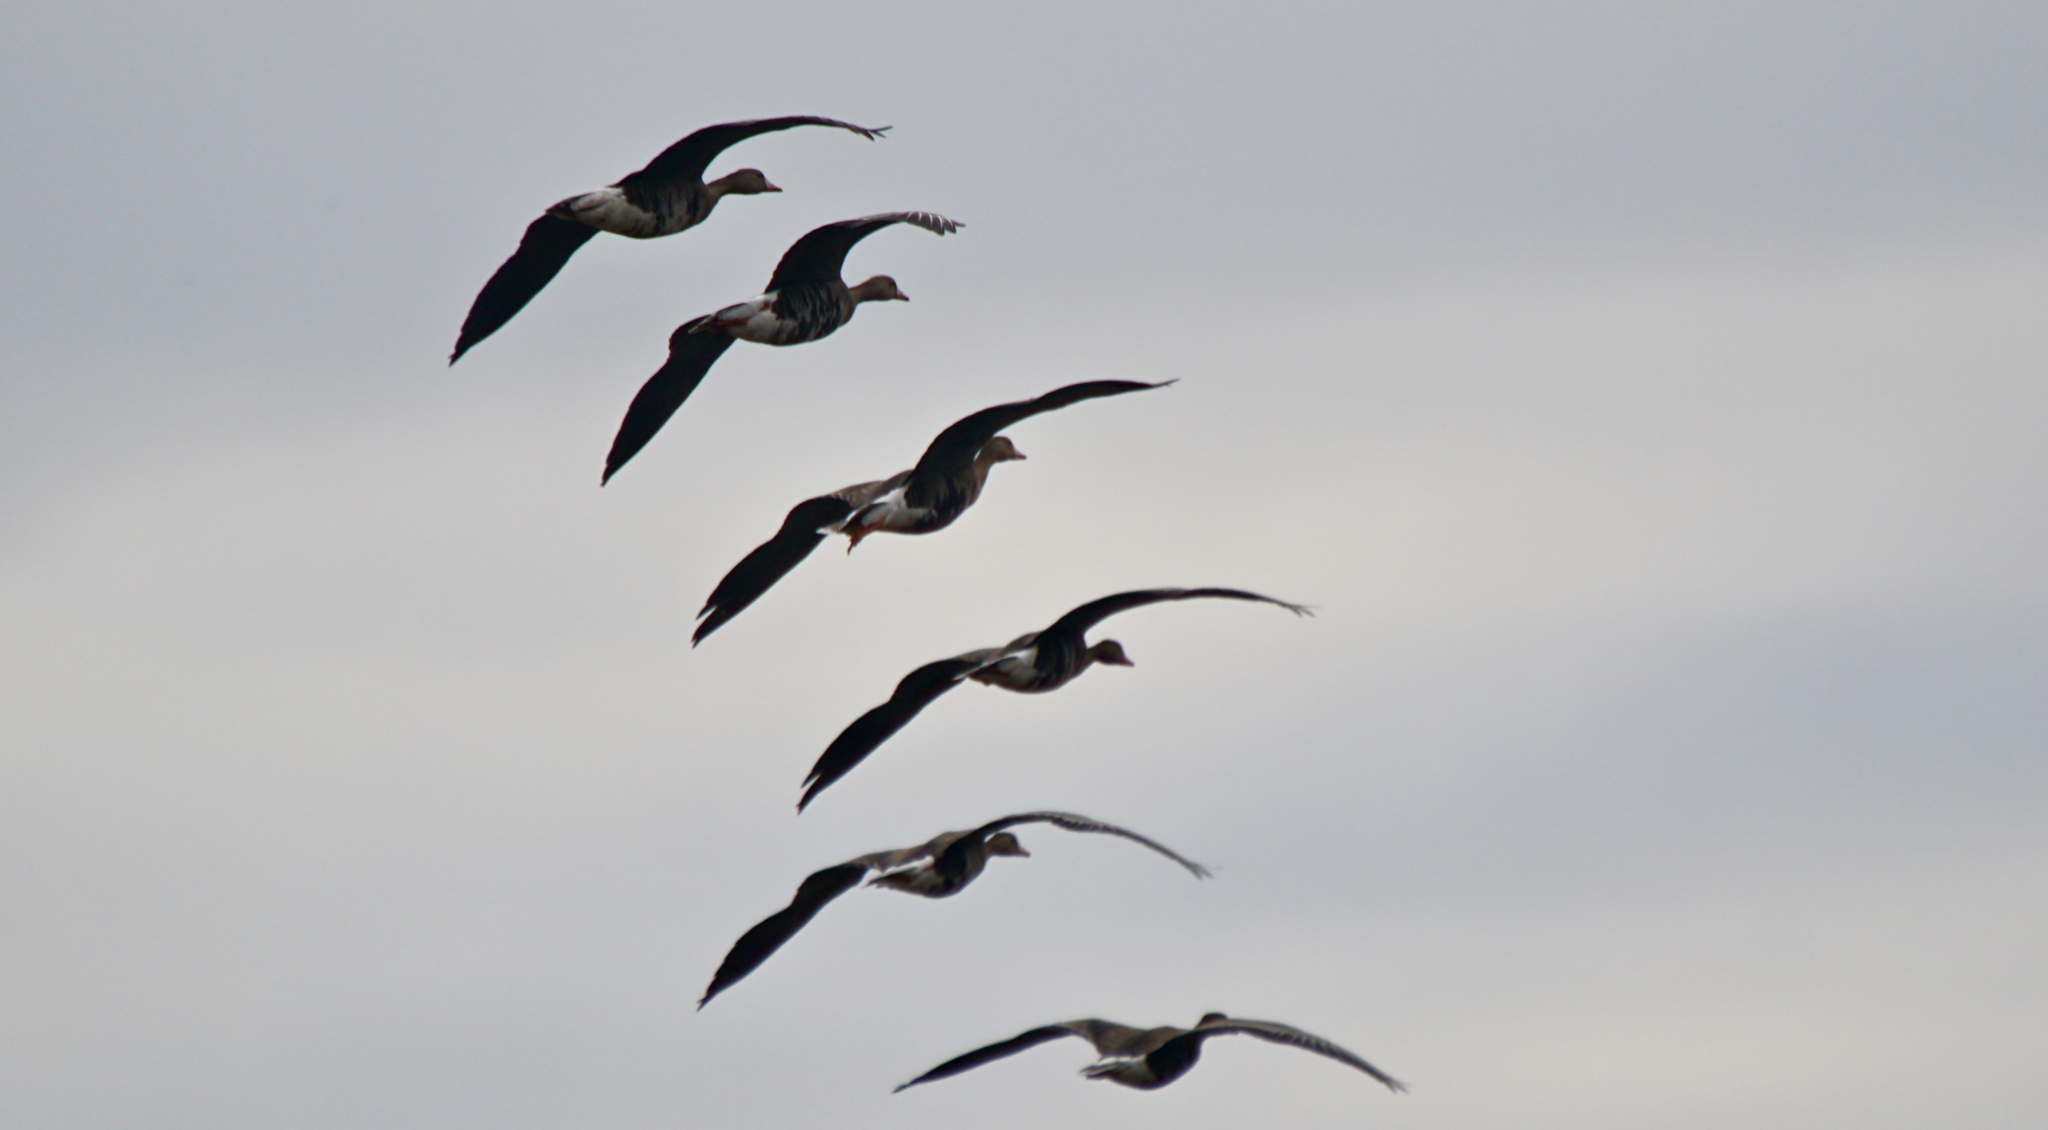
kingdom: Animalia
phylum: Chordata
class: Aves
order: Anseriformes
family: Anatidae
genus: Anser
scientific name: Anser albifrons
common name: Greater white-fronted goose
